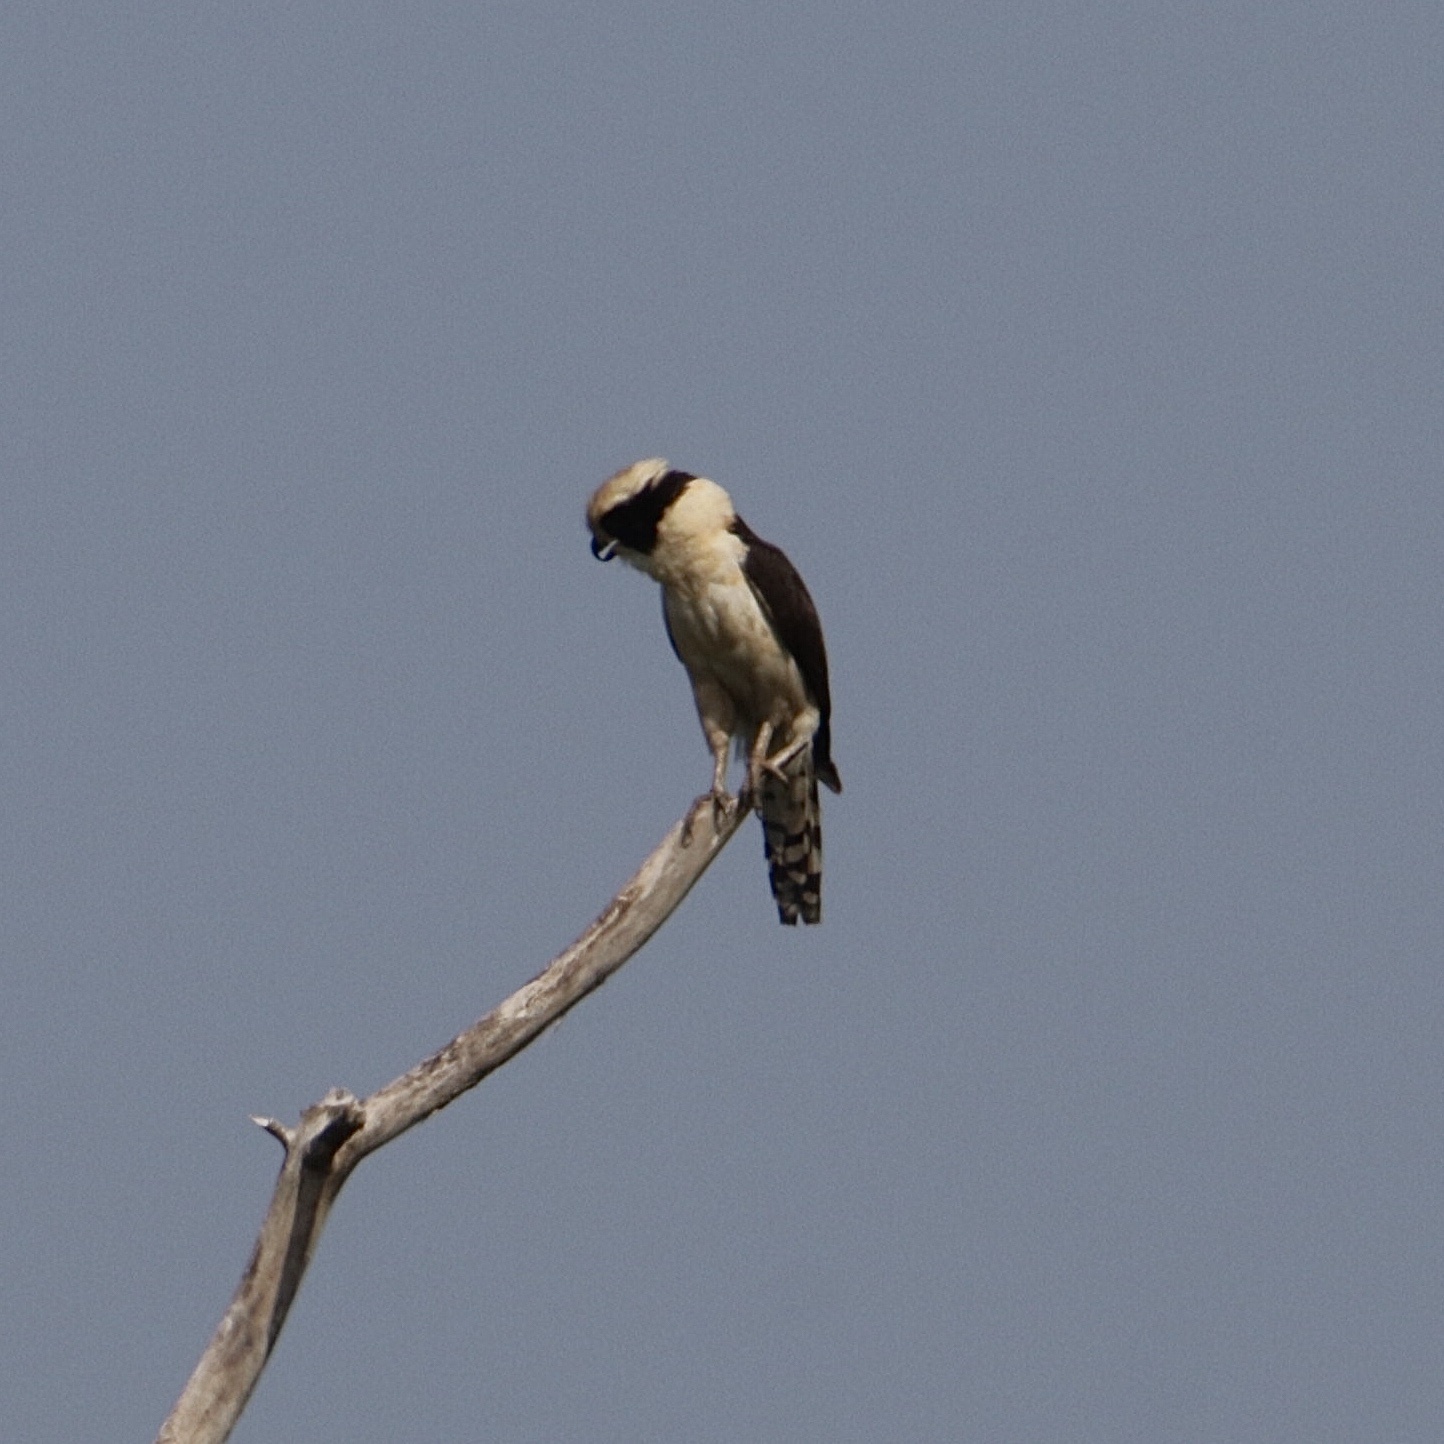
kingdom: Animalia
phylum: Chordata
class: Aves
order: Falconiformes
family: Falconidae
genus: Herpetotheres
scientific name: Herpetotheres cachinnans
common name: Laughing falcon
